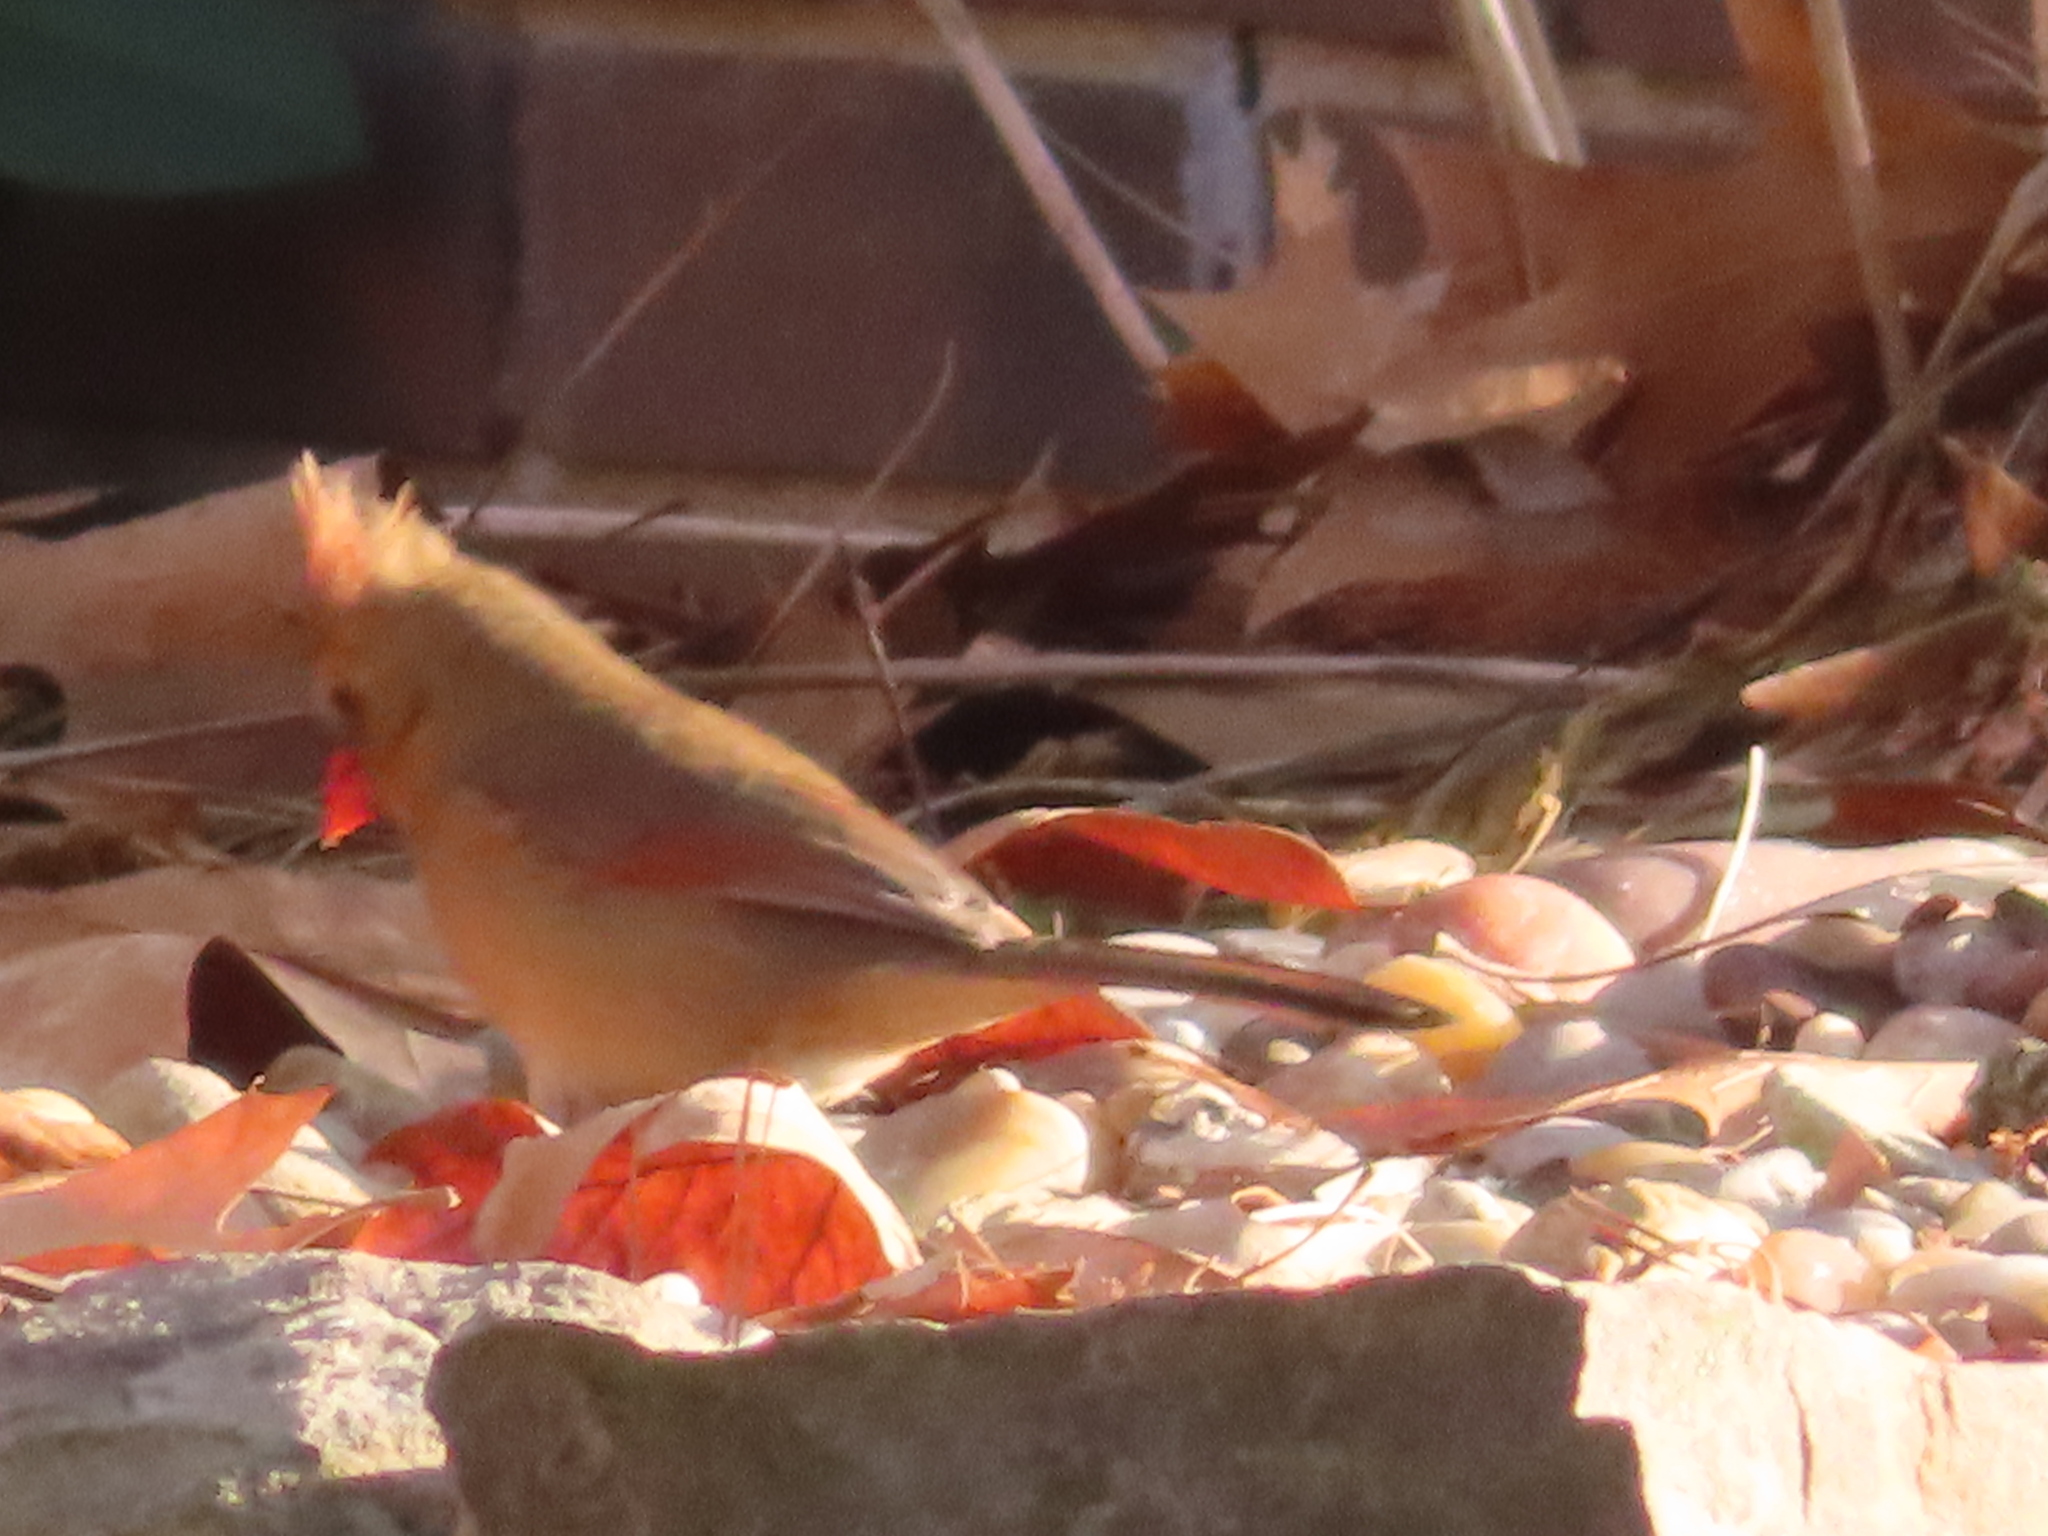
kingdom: Animalia
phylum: Chordata
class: Aves
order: Passeriformes
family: Cardinalidae
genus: Cardinalis
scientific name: Cardinalis cardinalis
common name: Northern cardinal
